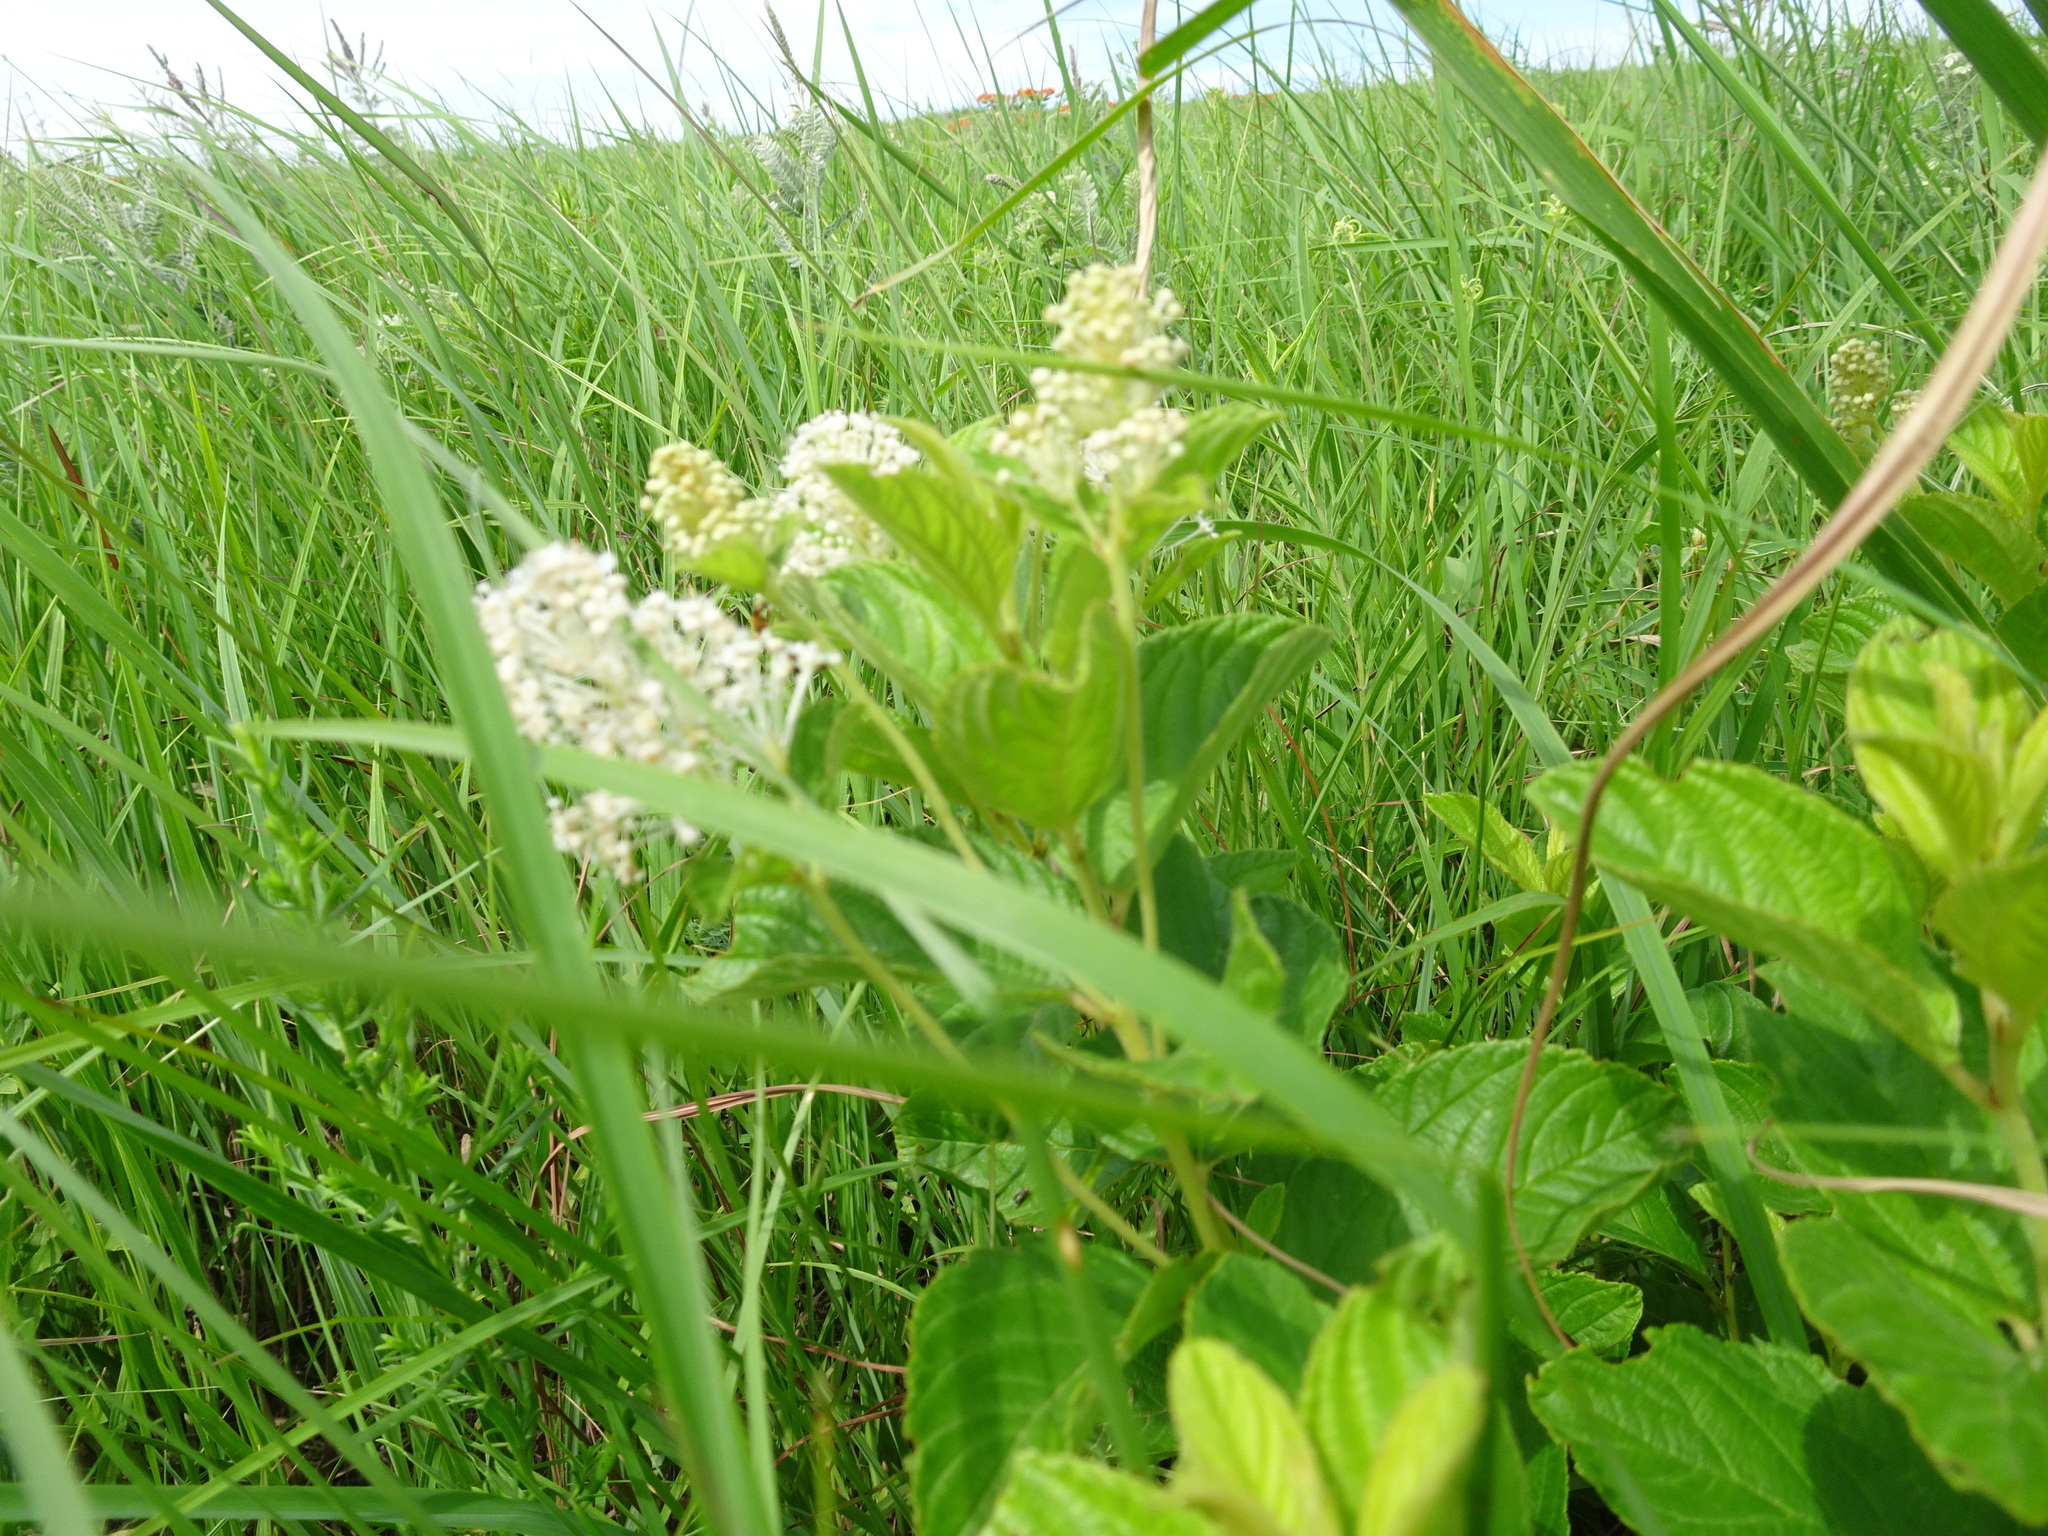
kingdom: Plantae
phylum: Tracheophyta
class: Magnoliopsida
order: Rosales
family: Rhamnaceae
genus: Ceanothus
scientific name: Ceanothus americanus
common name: Redroot
